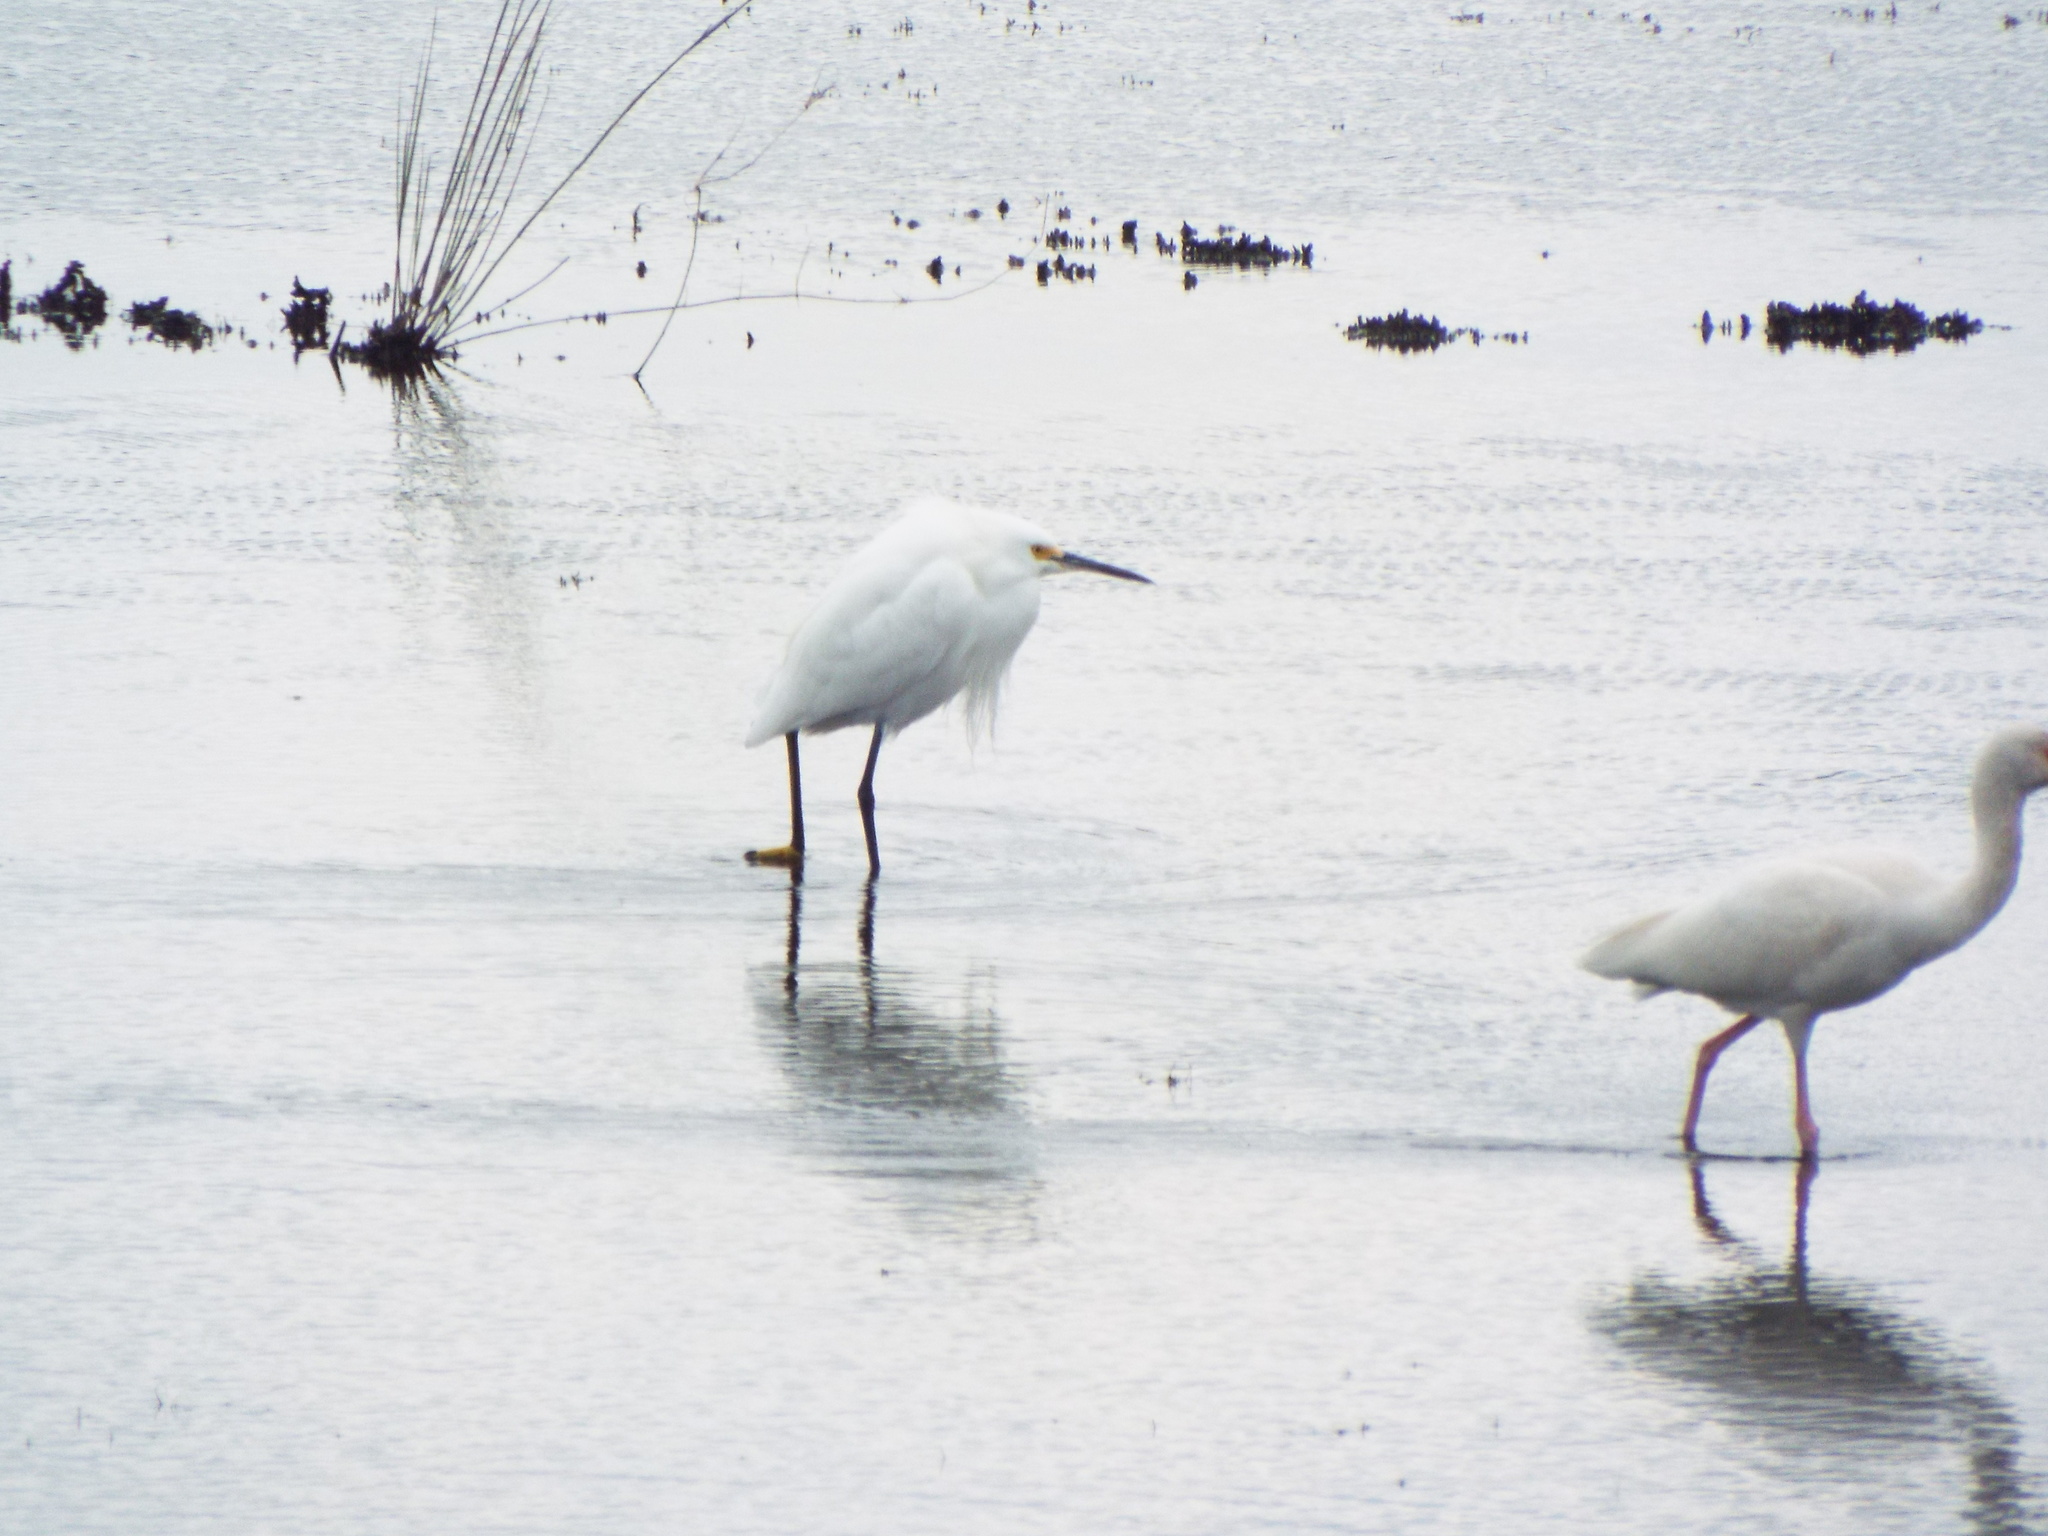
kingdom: Animalia
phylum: Chordata
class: Aves
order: Pelecaniformes
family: Ardeidae
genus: Egretta
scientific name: Egretta thula
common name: Snowy egret
